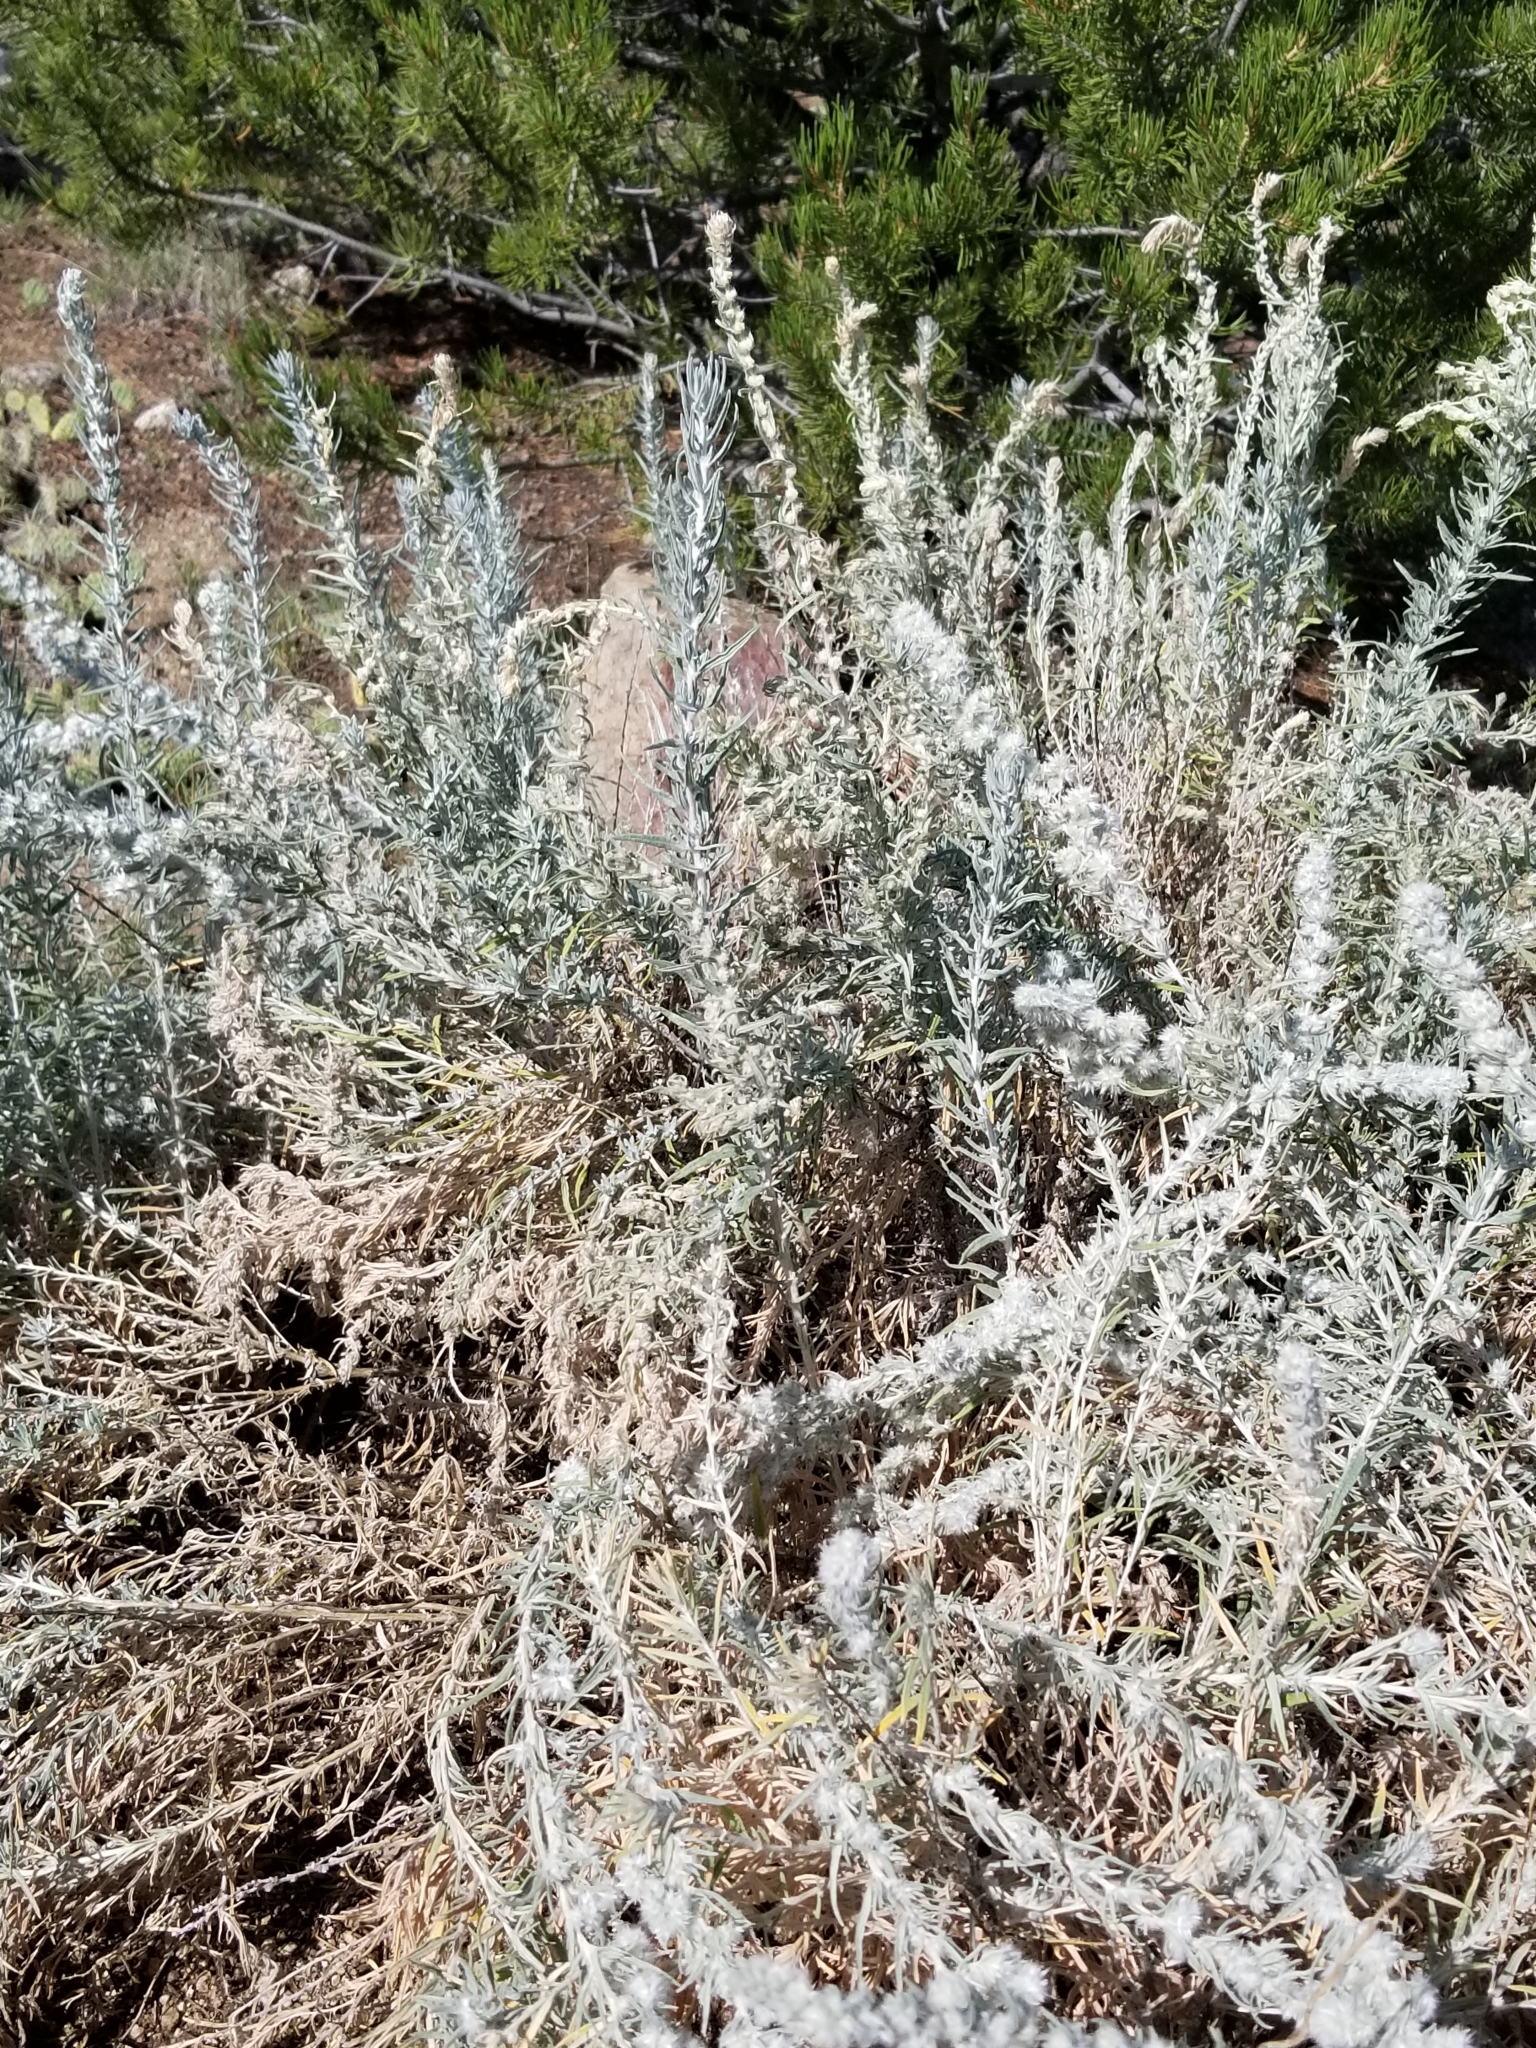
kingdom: Plantae
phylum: Tracheophyta
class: Magnoliopsida
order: Caryophyllales
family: Amaranthaceae
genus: Krascheninnikovia
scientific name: Krascheninnikovia lanata
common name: Winterfat
